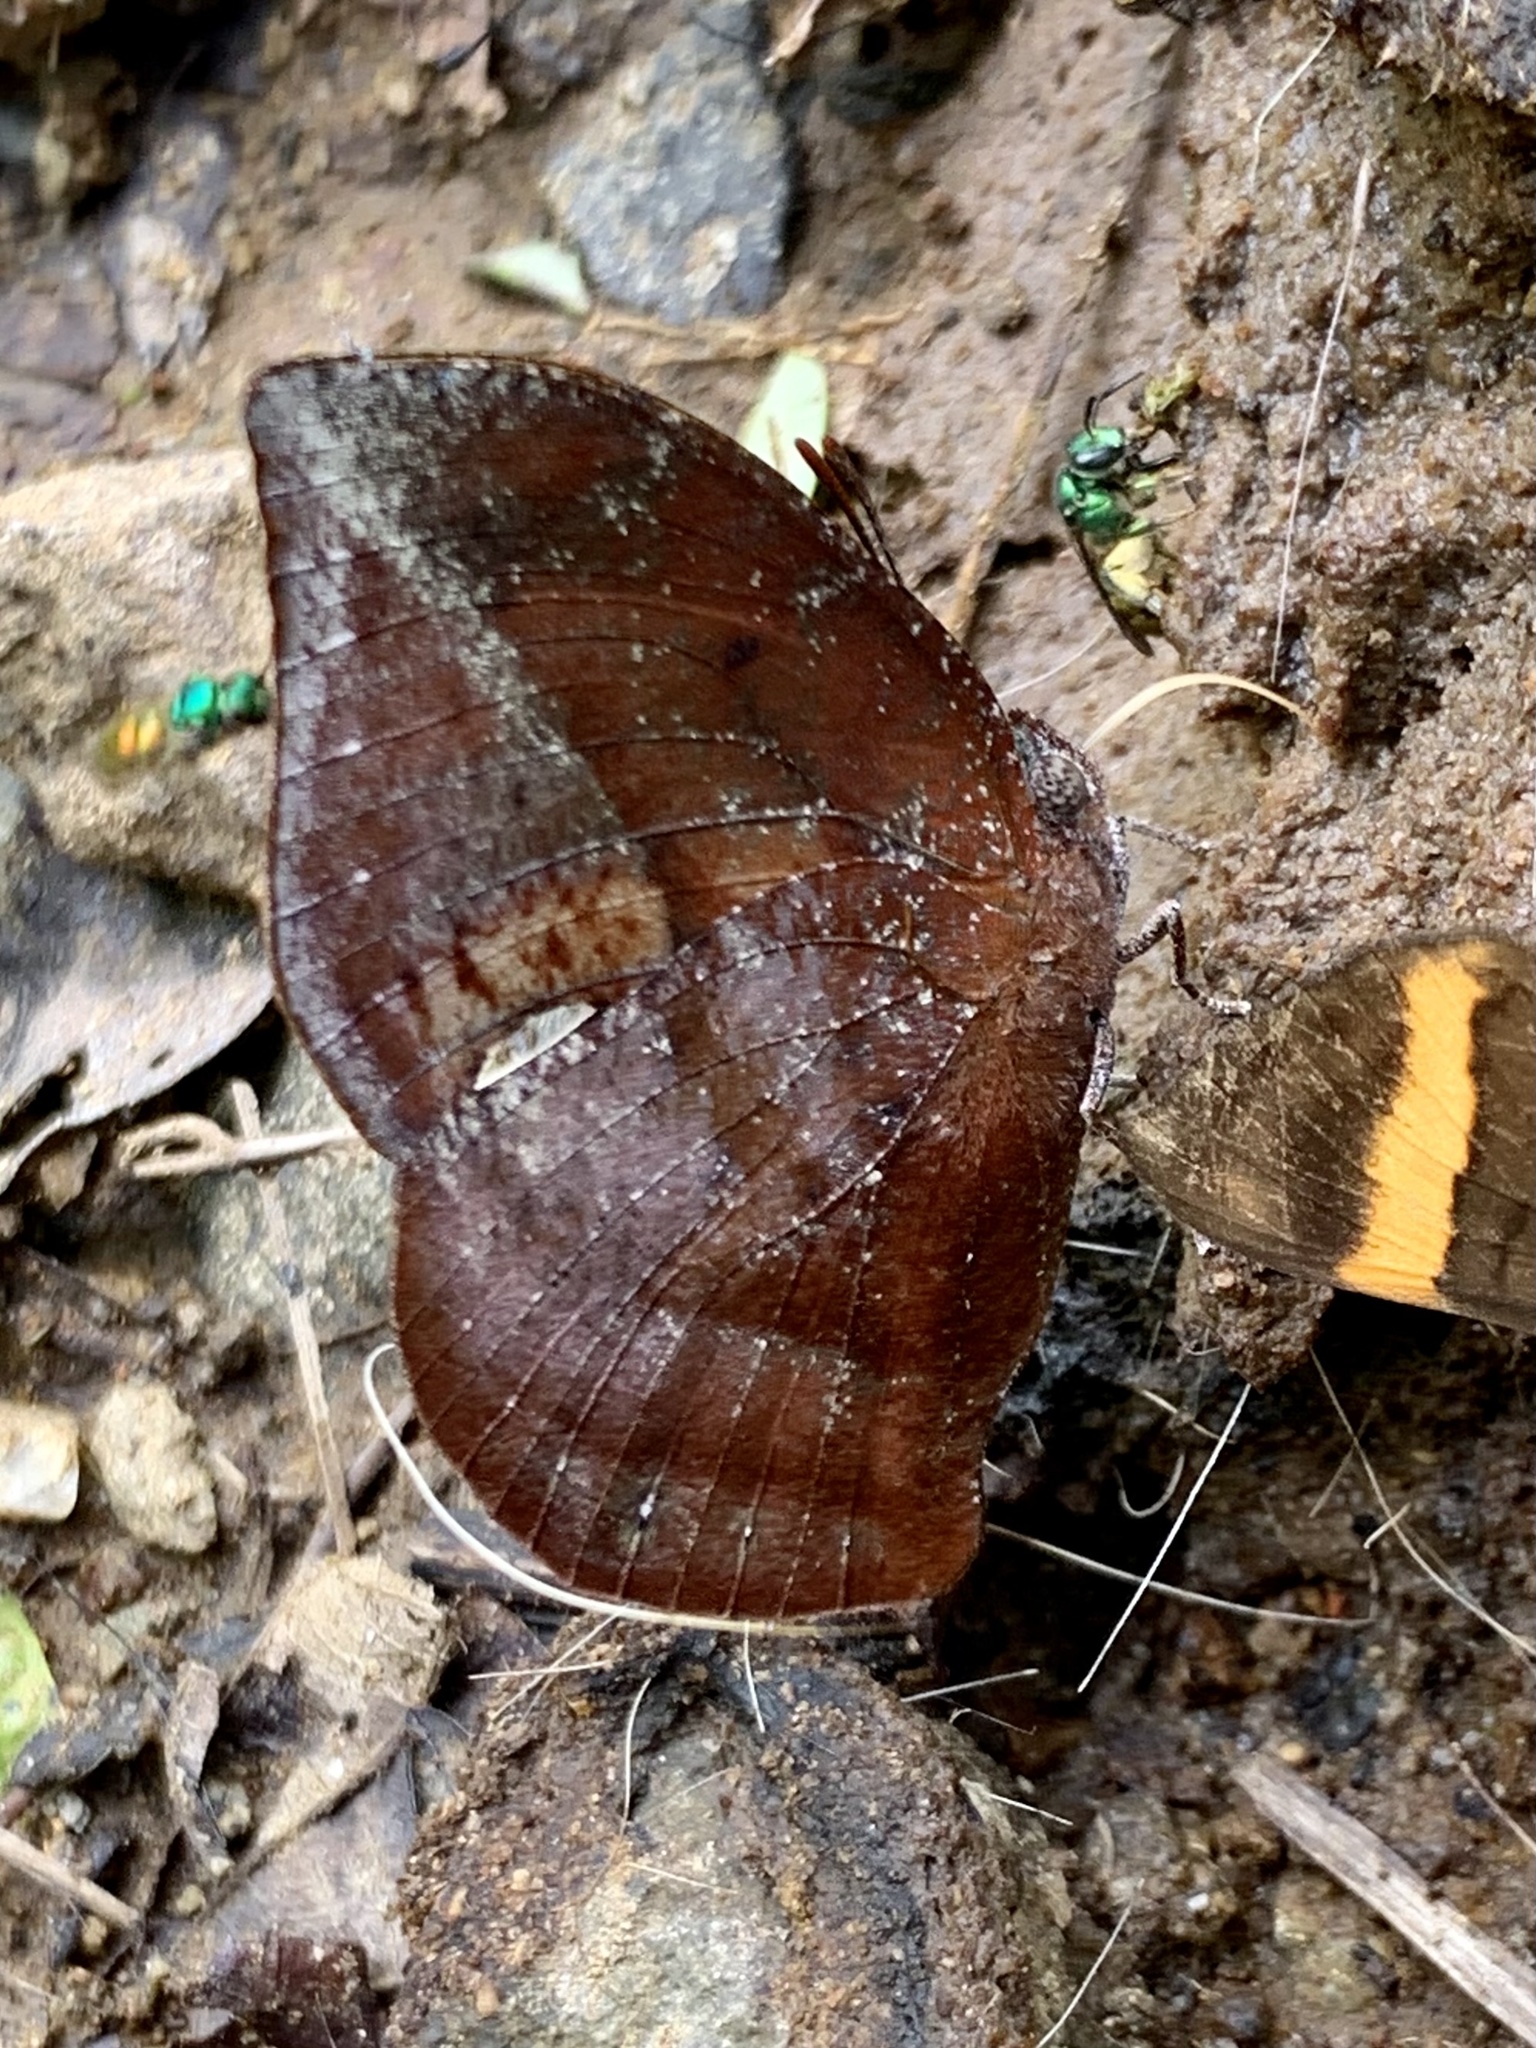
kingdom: Animalia
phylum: Arthropoda
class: Insecta
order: Lepidoptera
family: Nymphalidae
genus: Memphis
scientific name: Memphis lyceus
